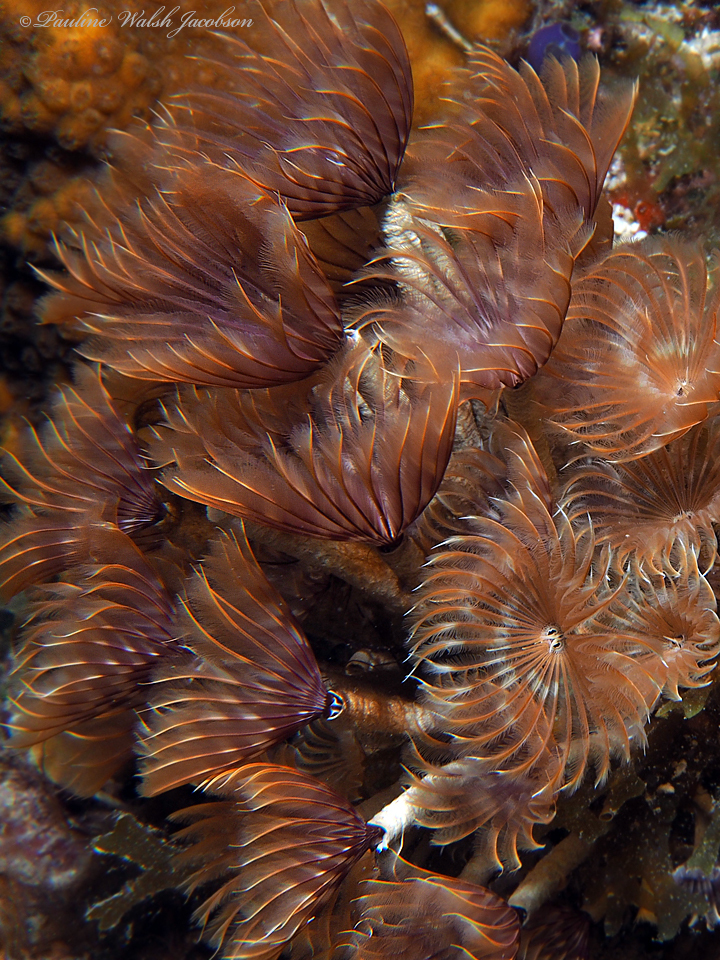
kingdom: Animalia
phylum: Annelida
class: Polychaeta
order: Sabellida
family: Sabellidae
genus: Bispira
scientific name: Bispira brunnea
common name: Social feather duster
